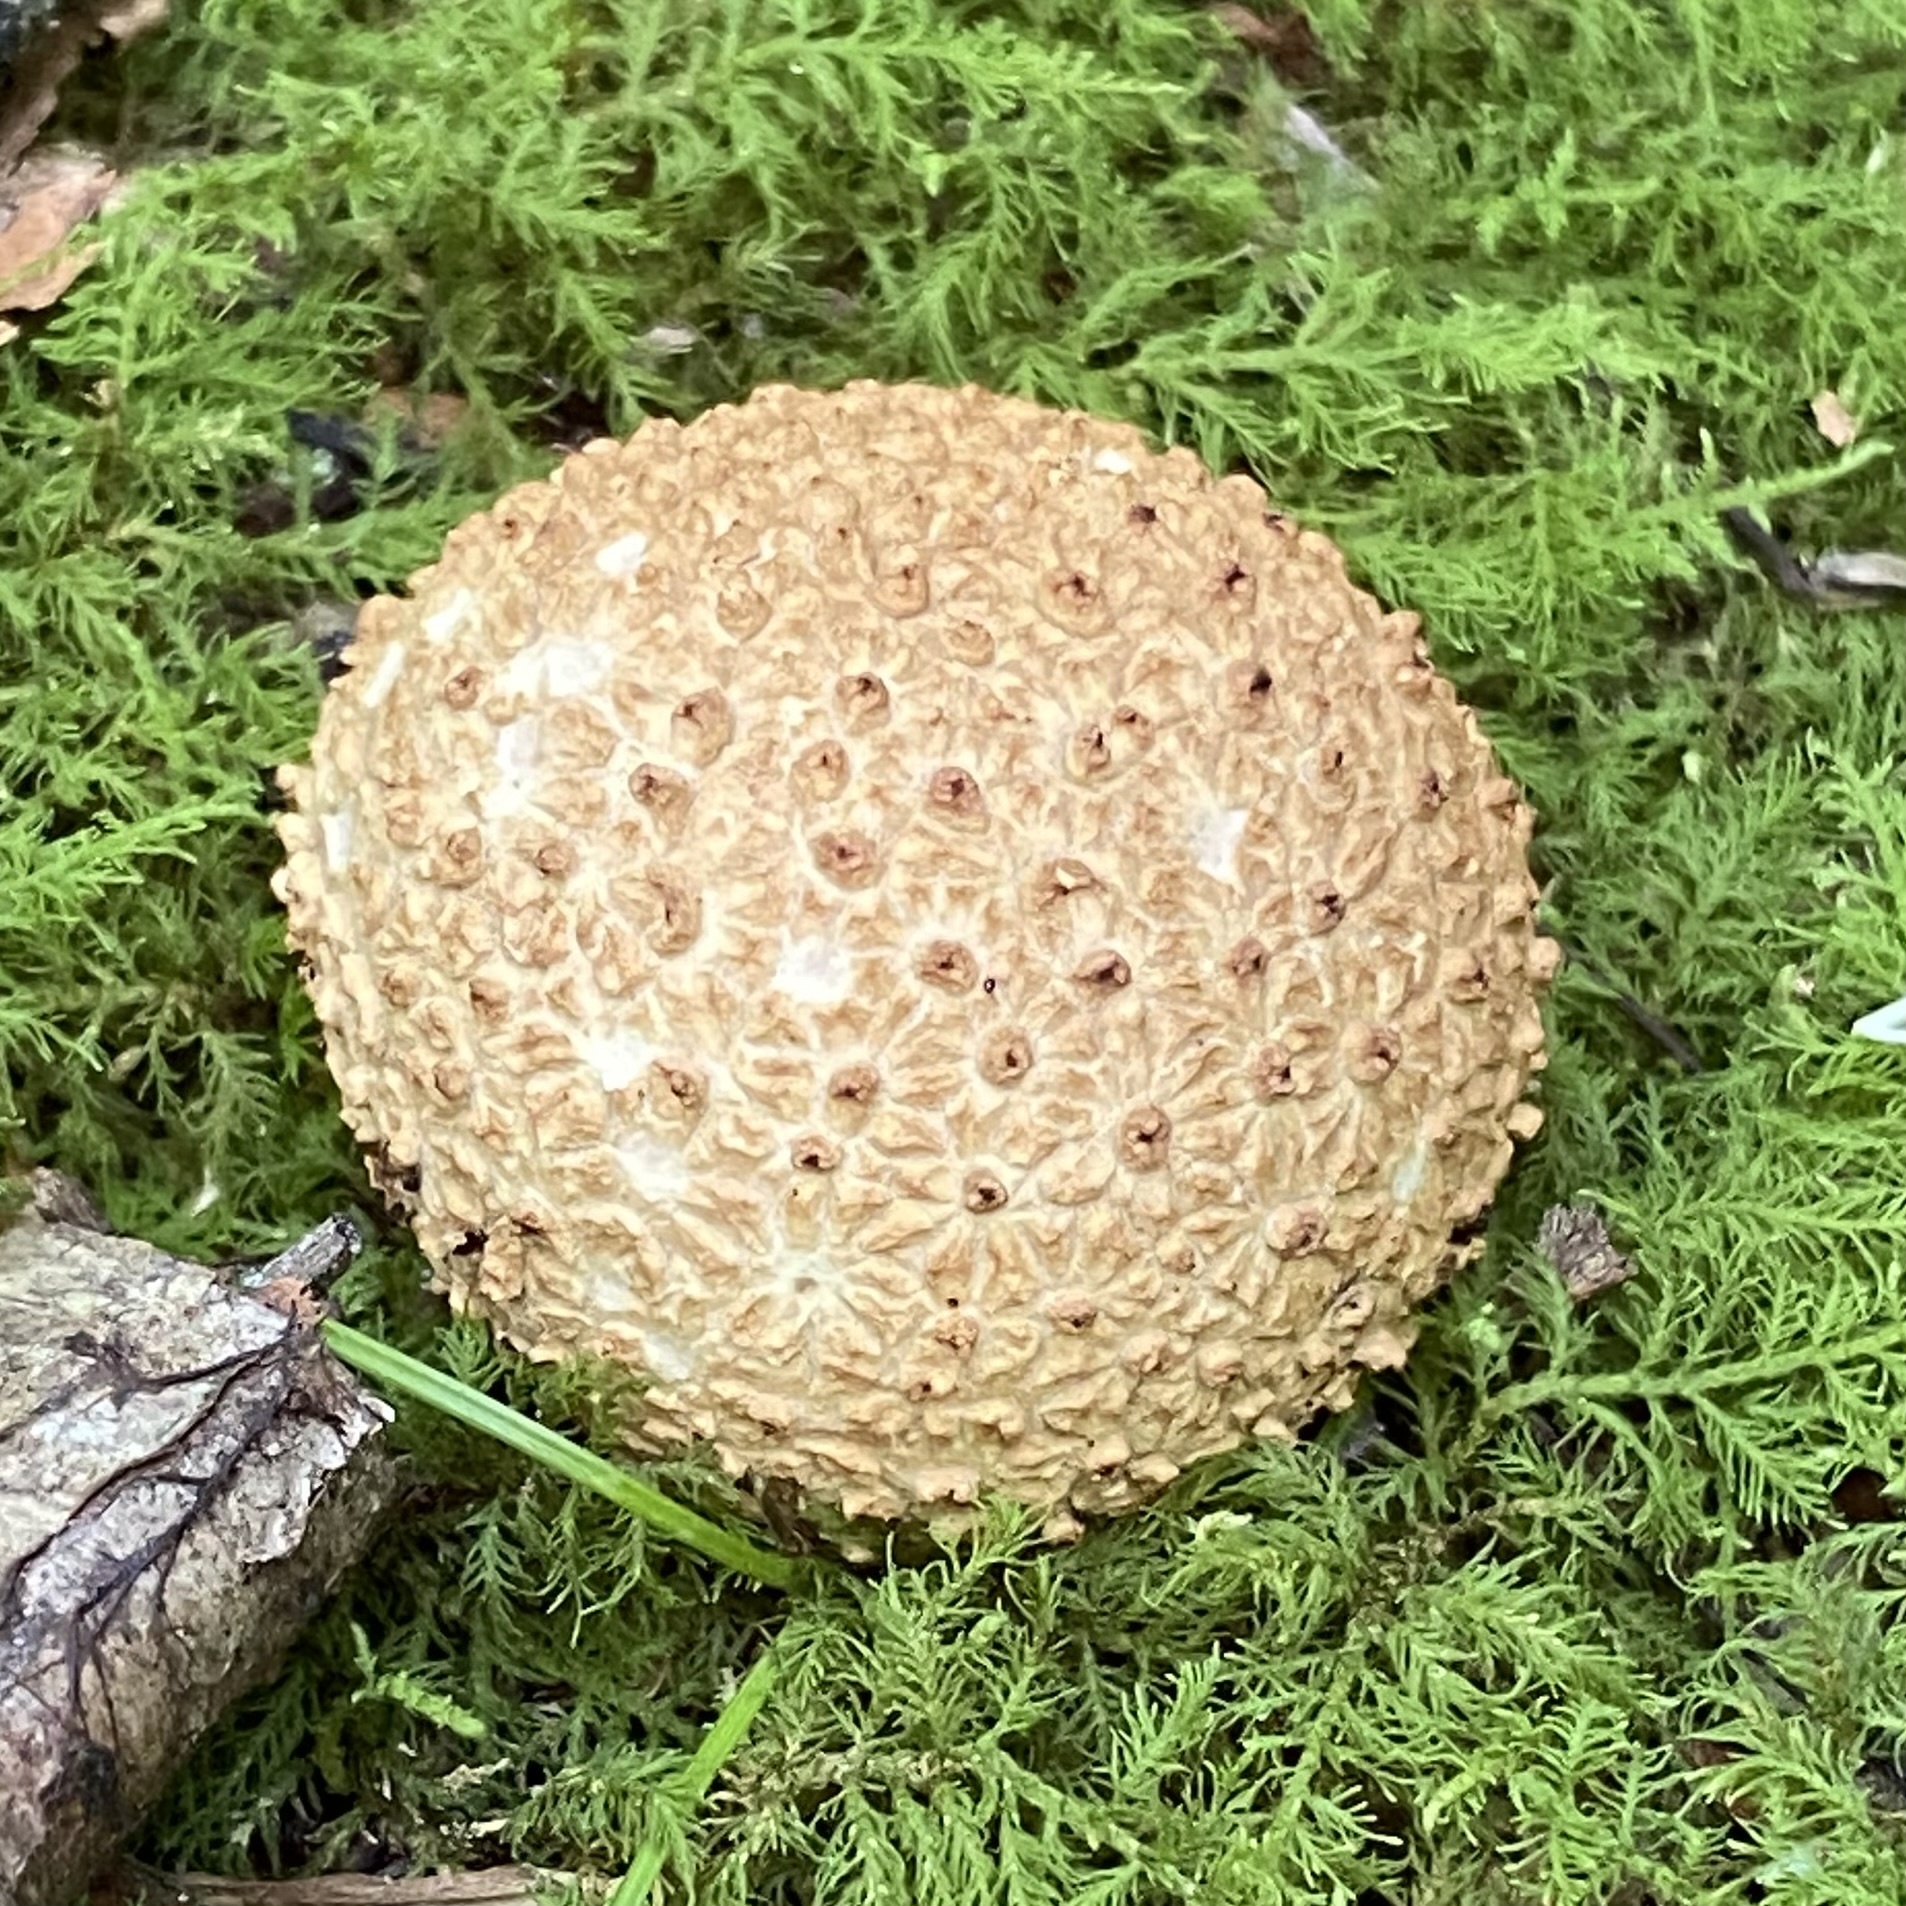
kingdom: Fungi
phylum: Basidiomycota
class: Agaricomycetes
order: Boletales
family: Sclerodermataceae
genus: Scleroderma
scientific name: Scleroderma
